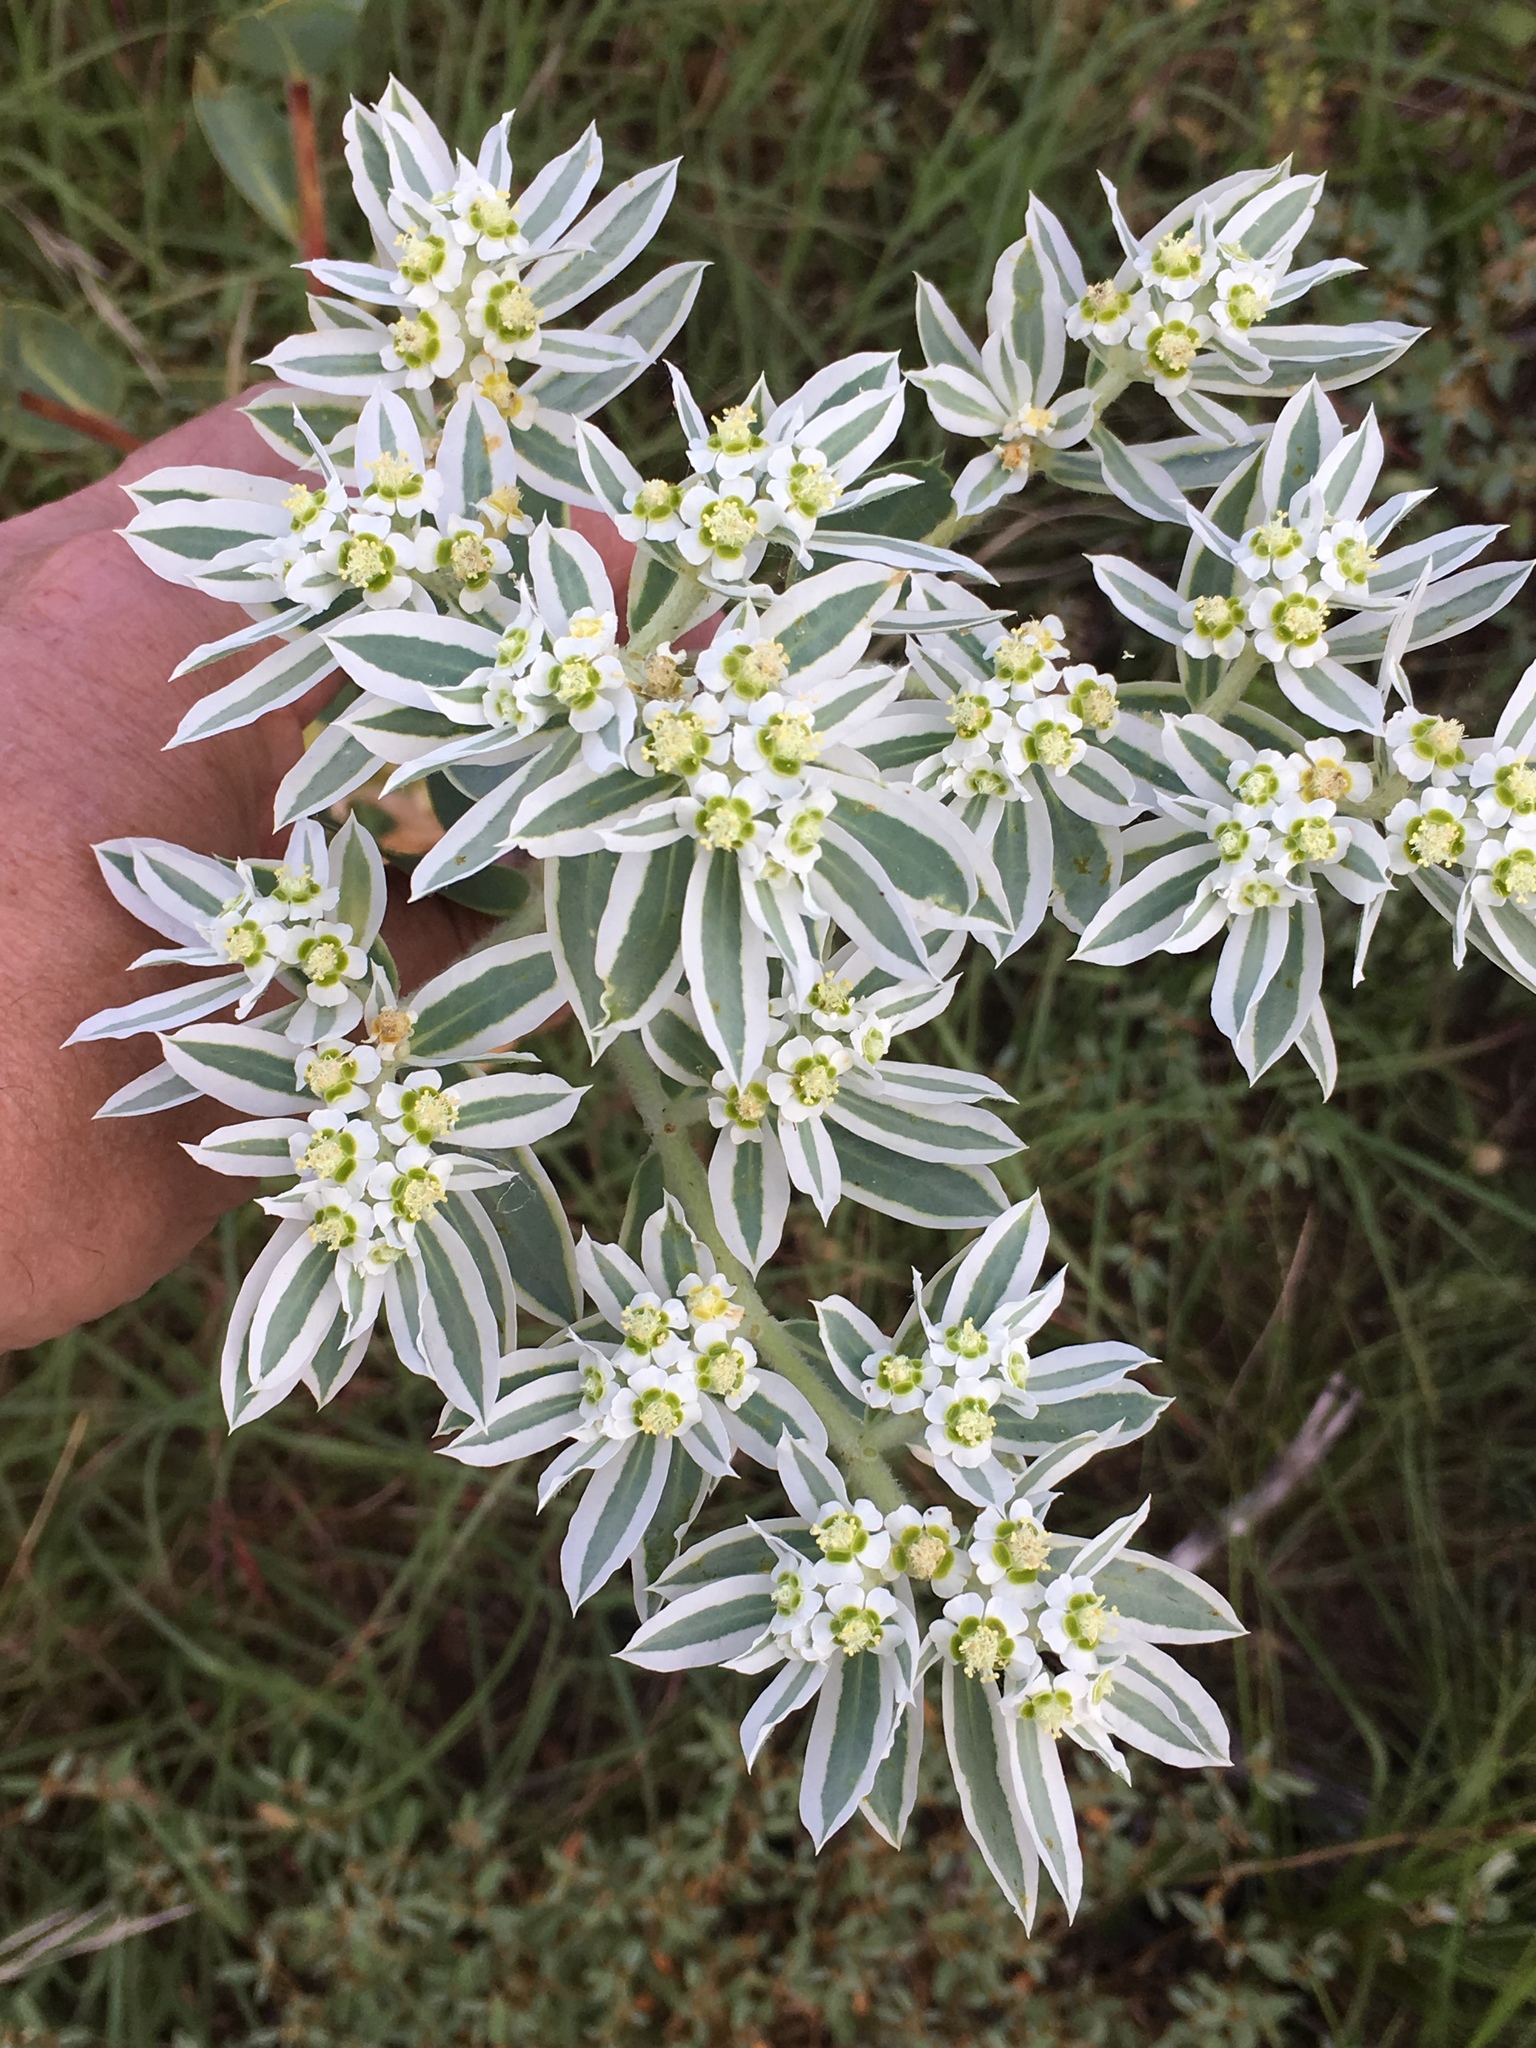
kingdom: Plantae
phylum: Tracheophyta
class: Magnoliopsida
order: Malpighiales
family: Euphorbiaceae
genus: Euphorbia
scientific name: Euphorbia marginata
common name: Ghostweed
